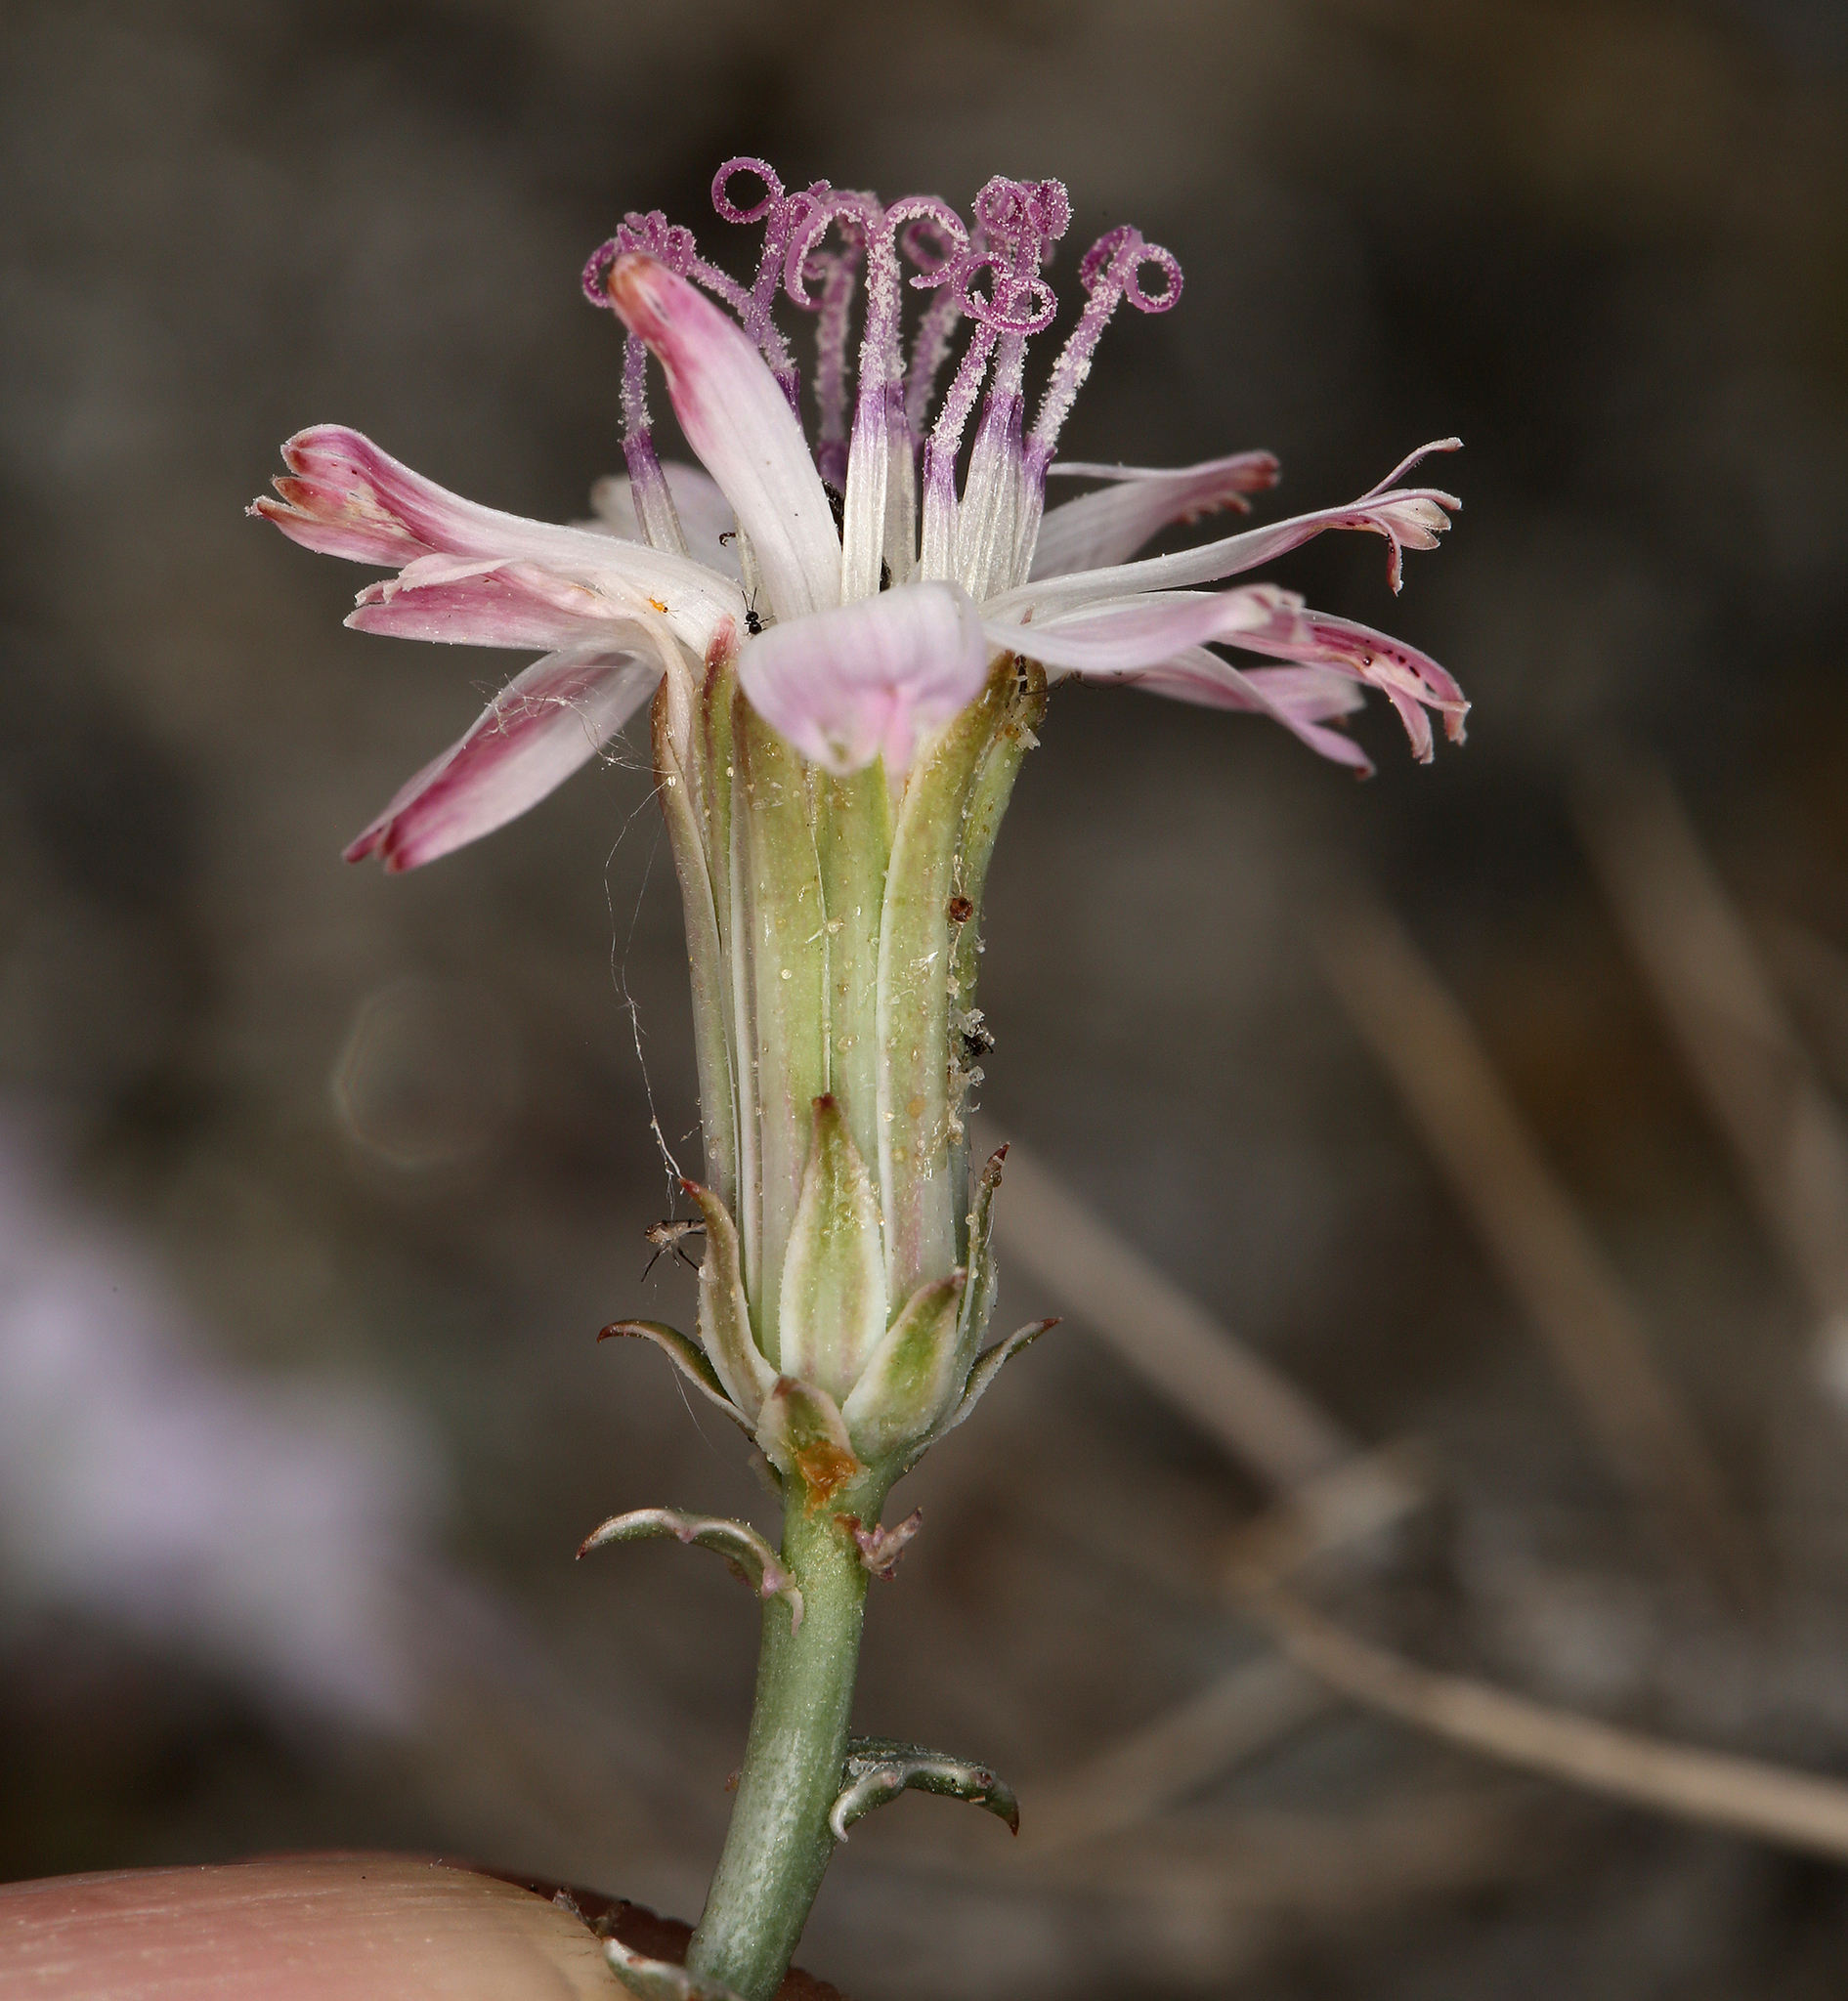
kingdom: Plantae
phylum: Tracheophyta
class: Magnoliopsida
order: Asterales
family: Asteraceae
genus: Stephanomeria
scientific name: Stephanomeria parryi
